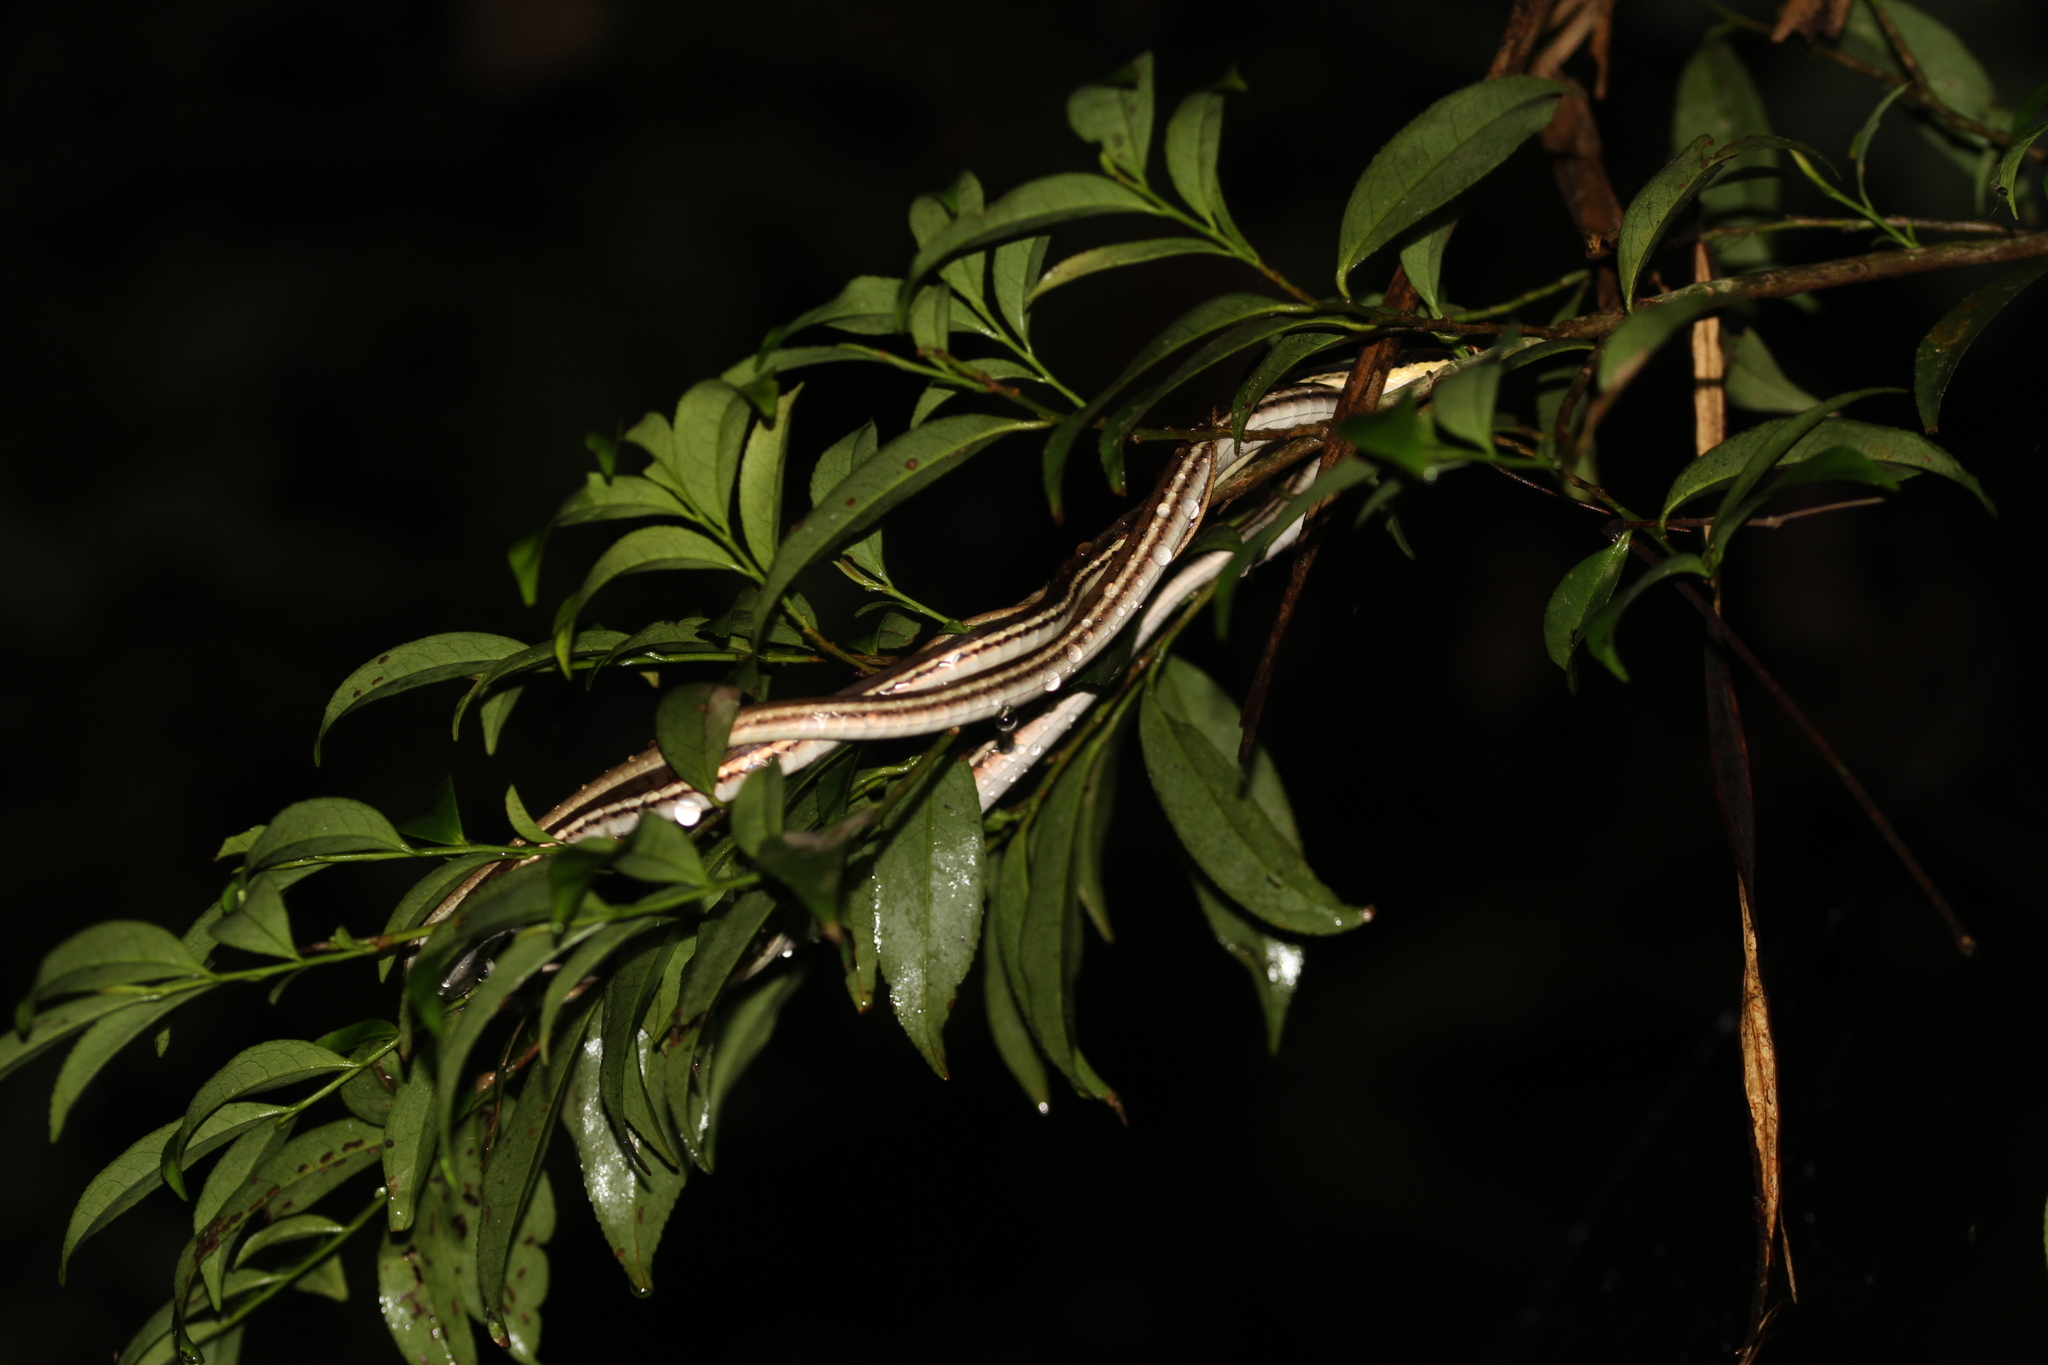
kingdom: Animalia
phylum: Chordata
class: Squamata
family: Colubridae
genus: Dendrelaphis
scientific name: Dendrelaphis pictus
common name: Indonesian bronze-back
